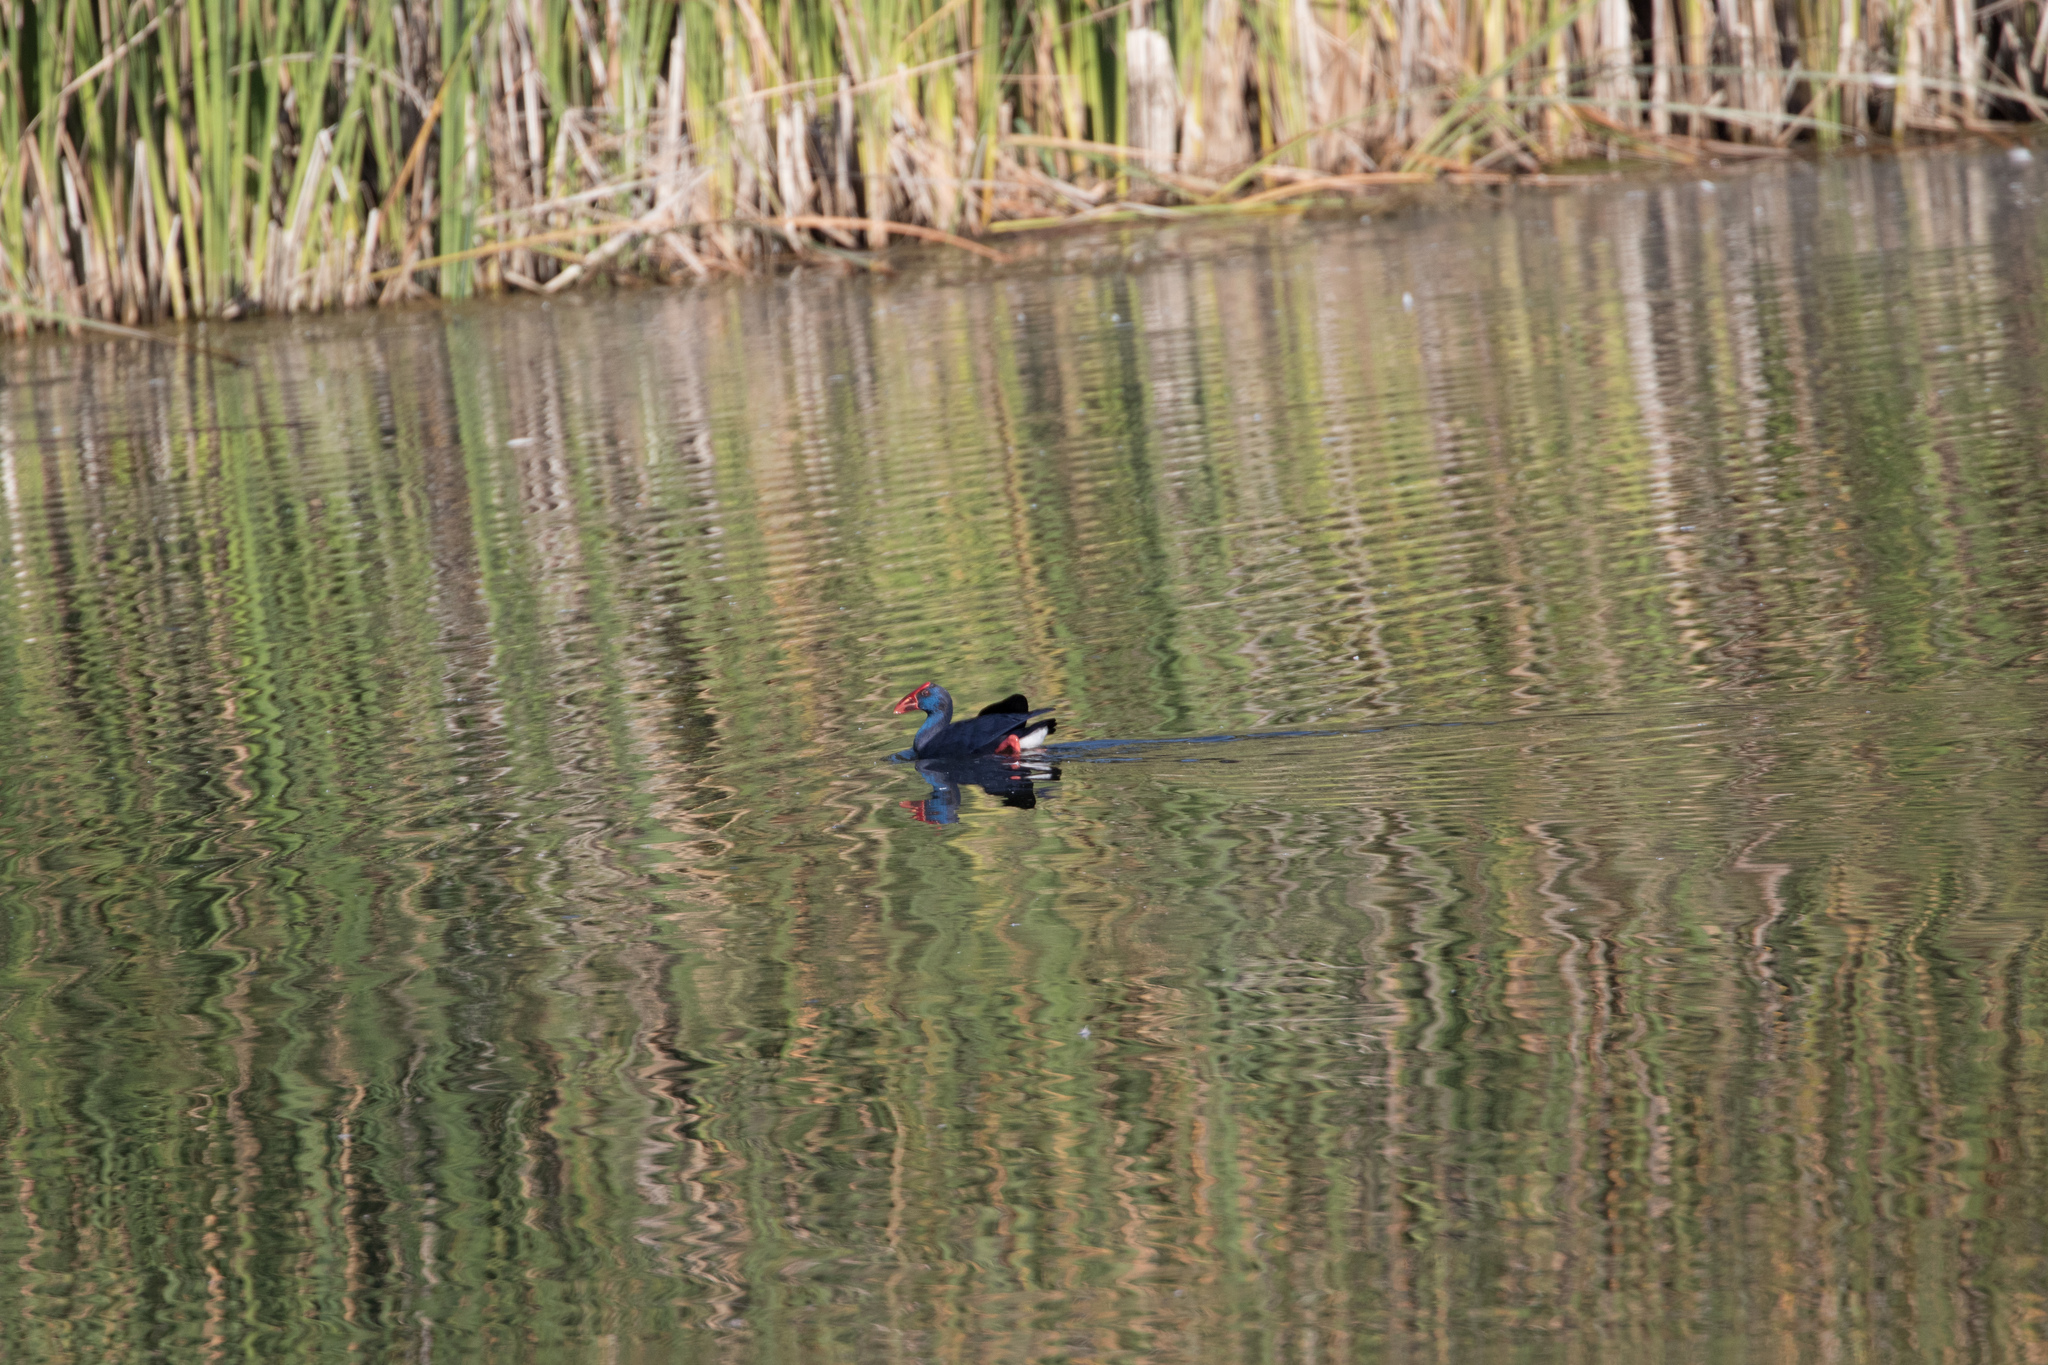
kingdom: Animalia
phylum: Chordata
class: Aves
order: Gruiformes
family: Rallidae
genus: Porphyrio
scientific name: Porphyrio porphyrio
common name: Purple swamphen
